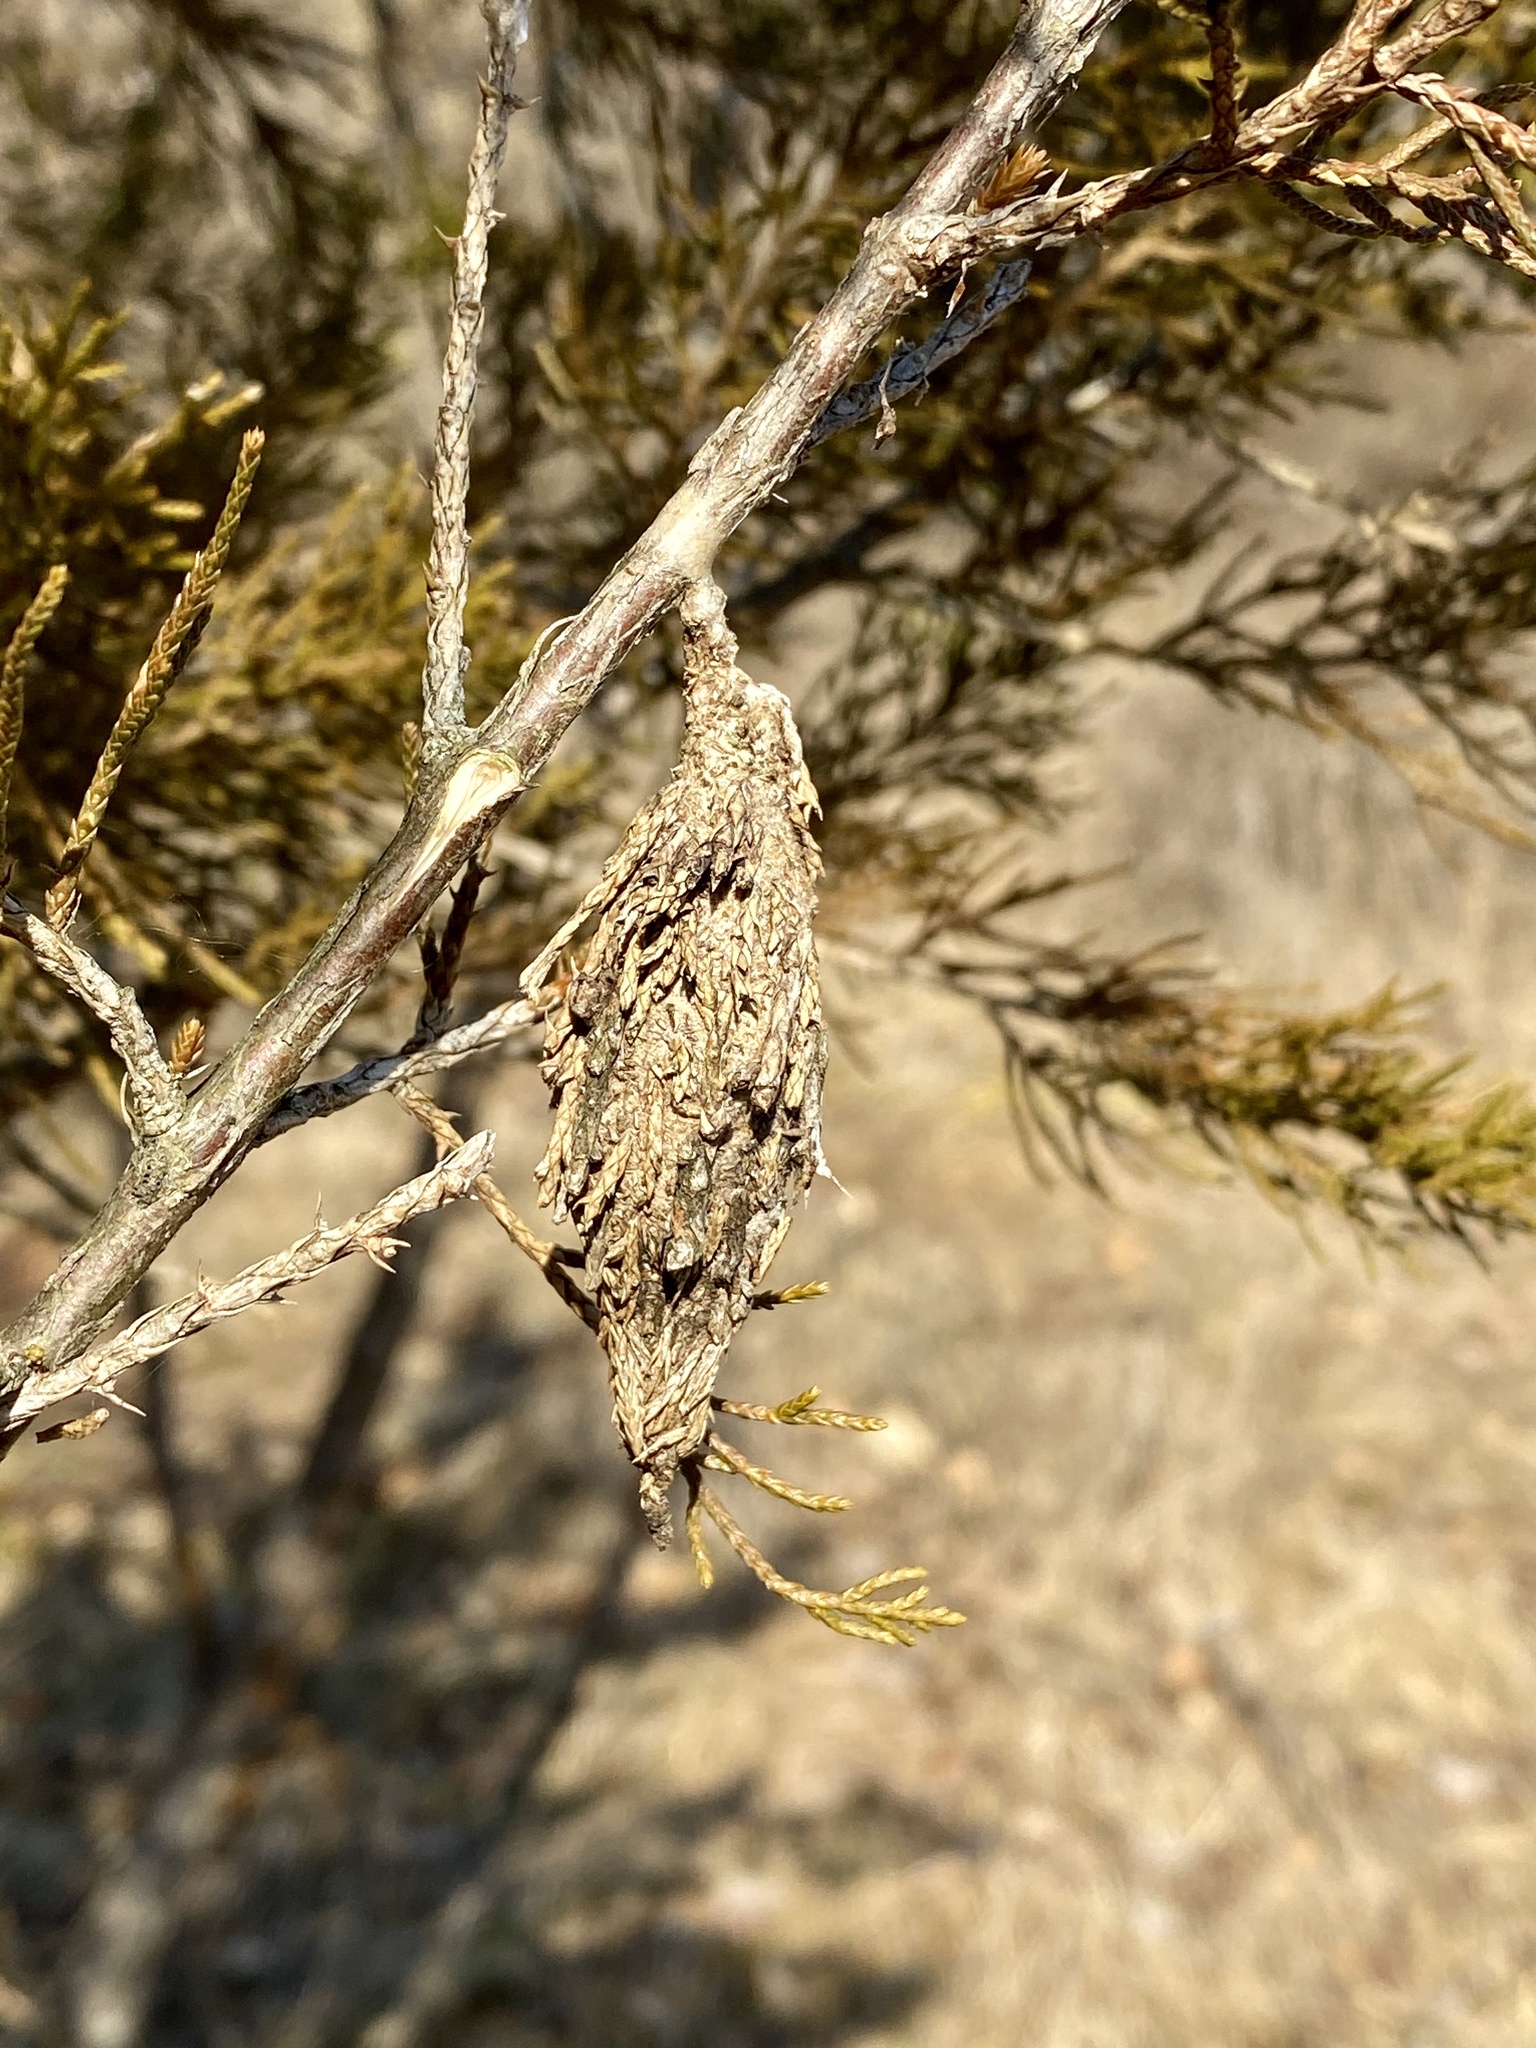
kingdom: Animalia
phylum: Arthropoda
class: Insecta
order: Lepidoptera
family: Psychidae
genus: Thyridopteryx
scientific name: Thyridopteryx ephemeraeformis
